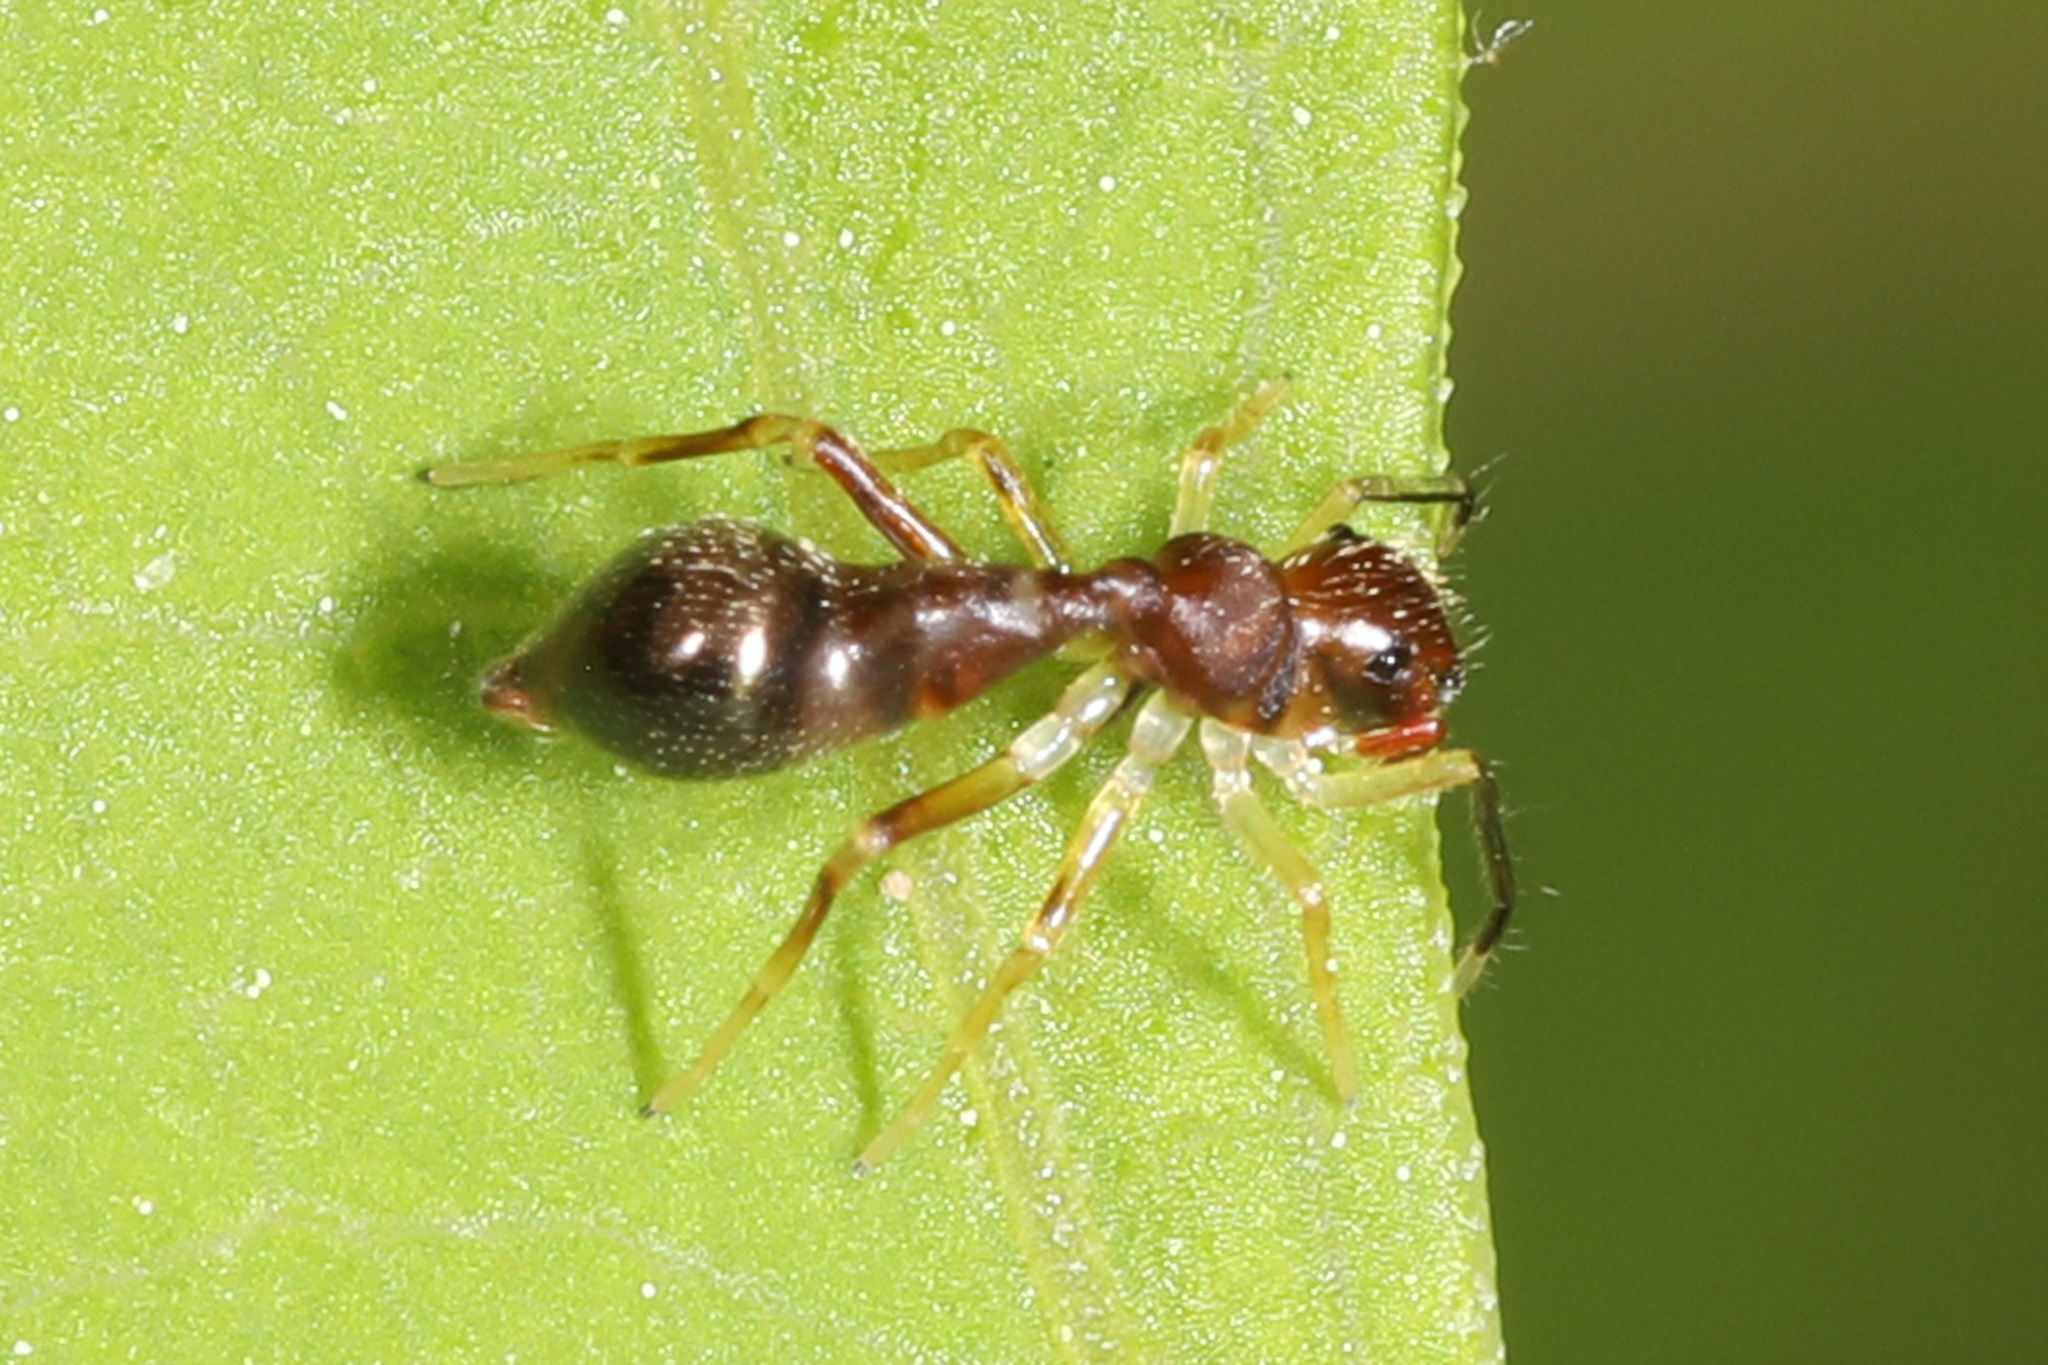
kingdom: Animalia
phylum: Arthropoda
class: Arachnida
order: Araneae
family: Salticidae
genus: Synemosyna
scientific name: Synemosyna formica
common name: Slender ant-mimic jumping spider
